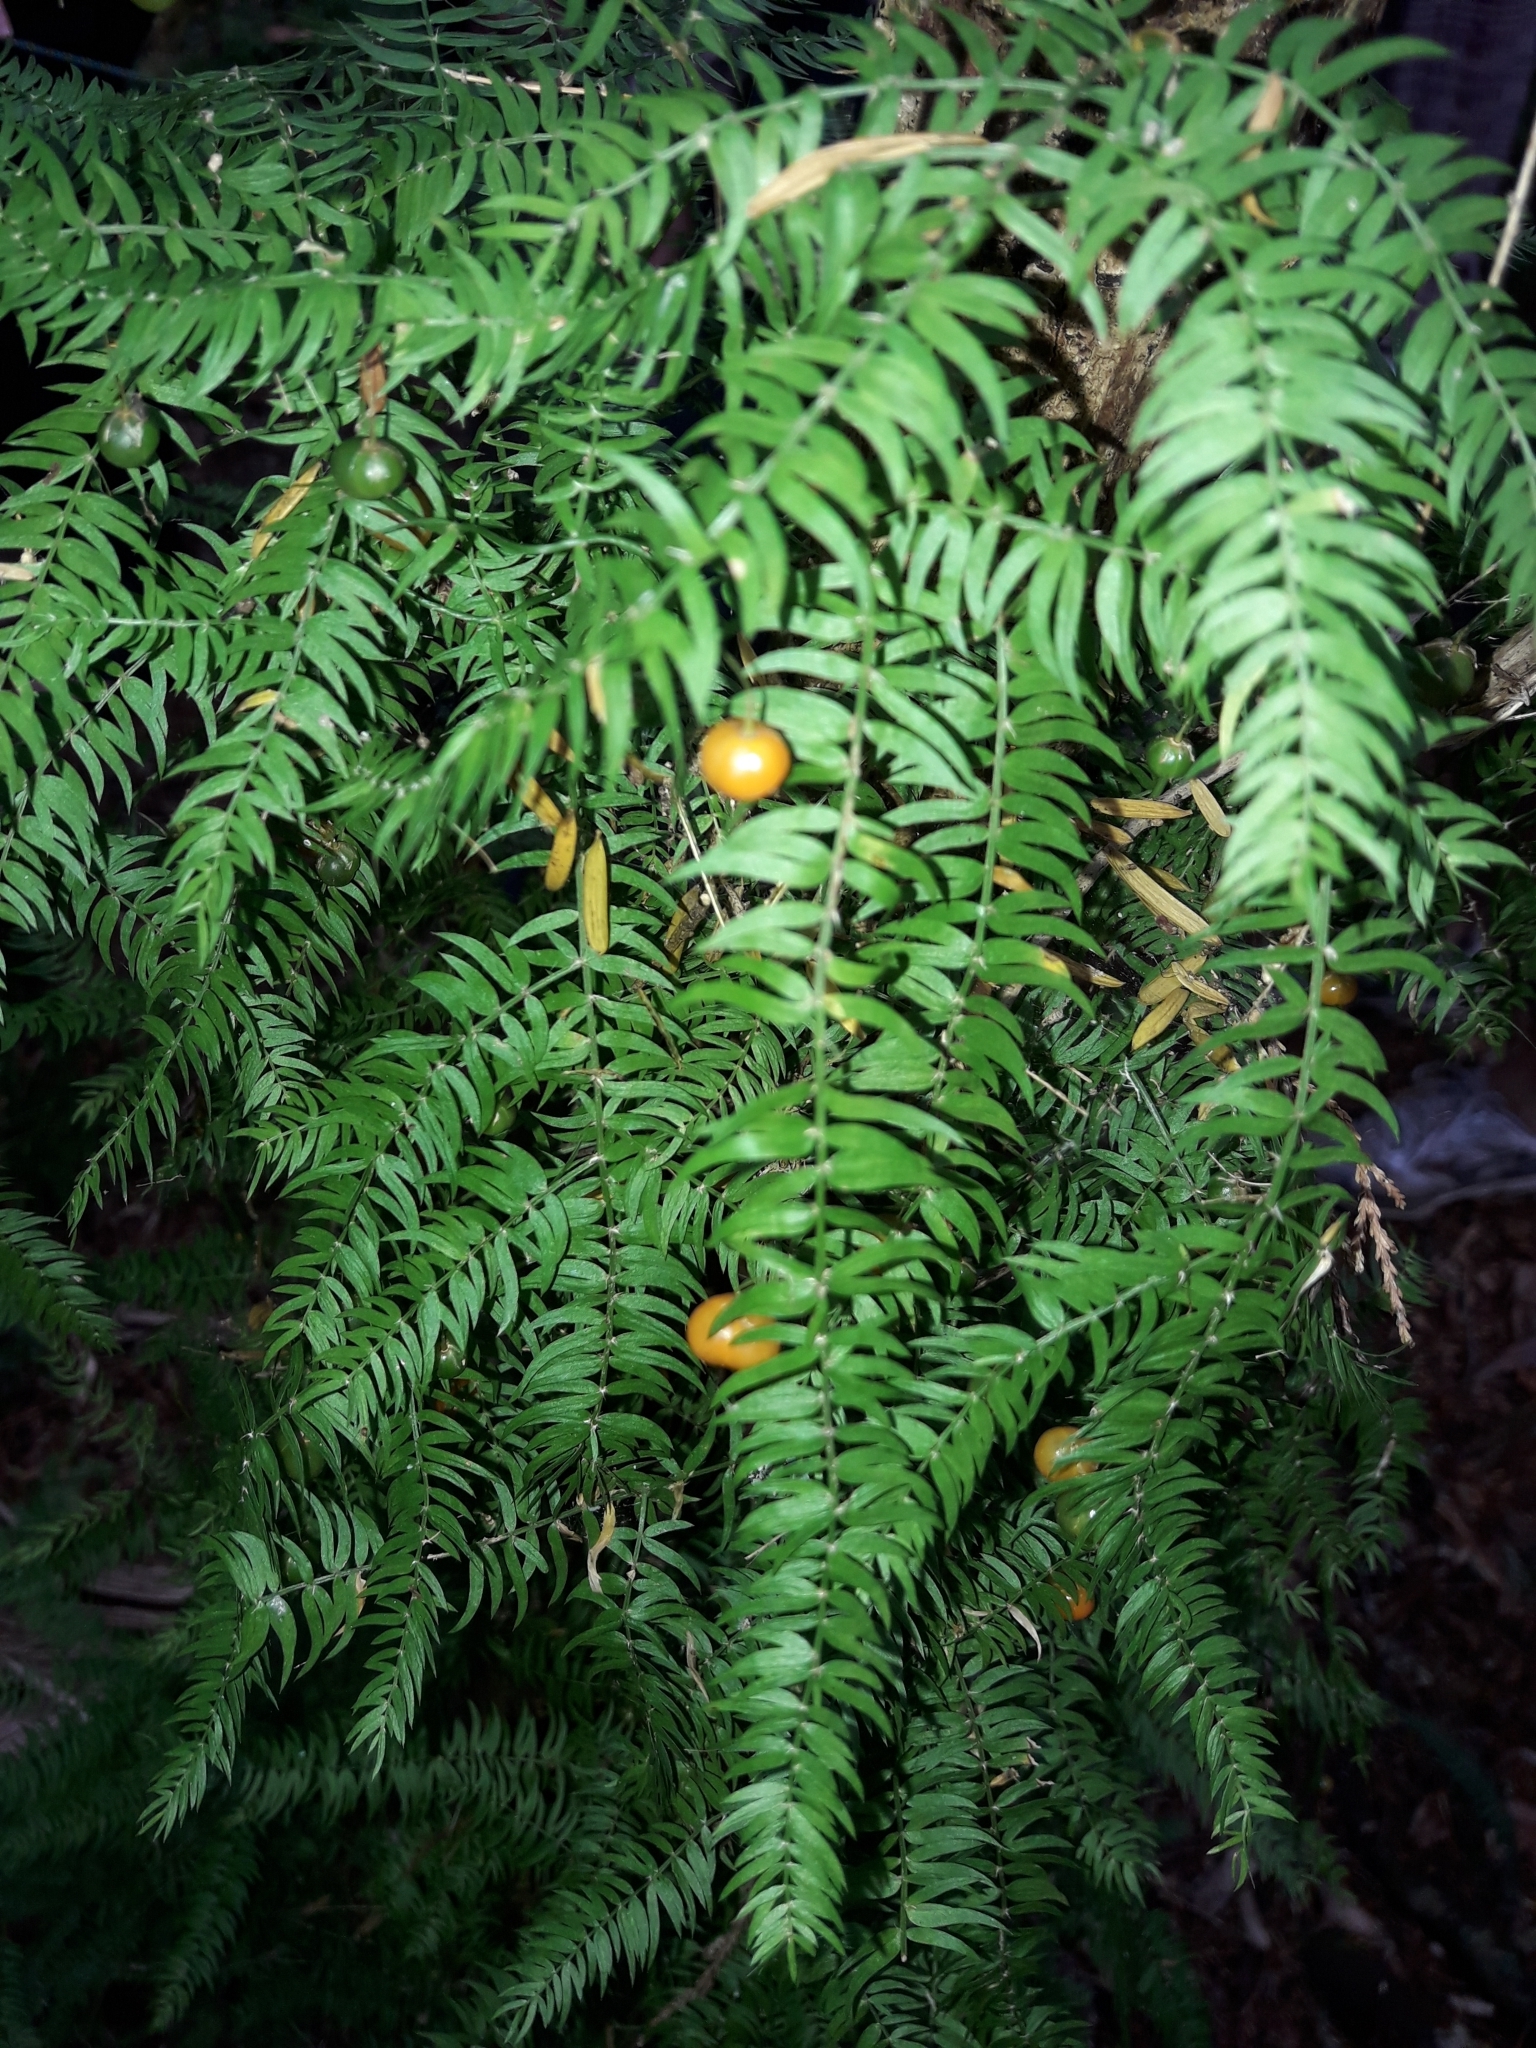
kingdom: Plantae
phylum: Tracheophyta
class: Liliopsida
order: Asparagales
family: Asparagaceae
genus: Asparagus
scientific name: Asparagus scandens
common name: Asparagus-fern
